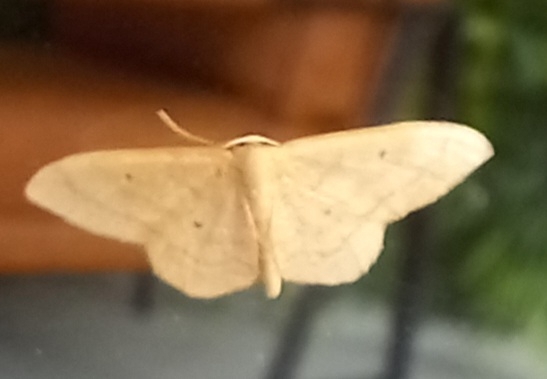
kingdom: Animalia
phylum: Arthropoda
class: Insecta
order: Lepidoptera
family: Geometridae
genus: Idaea
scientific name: Idaea straminata
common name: Plain wave
